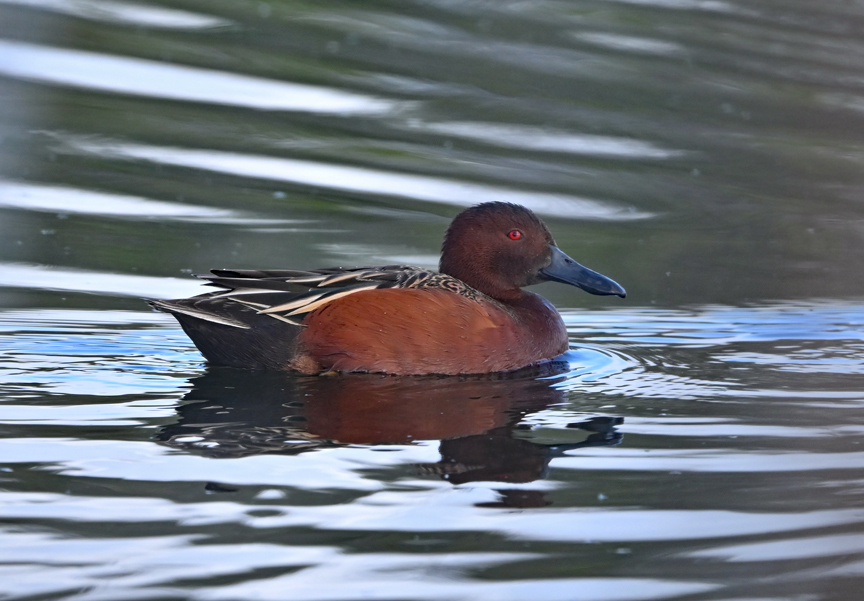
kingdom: Animalia
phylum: Chordata
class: Aves
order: Anseriformes
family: Anatidae
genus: Spatula
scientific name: Spatula cyanoptera
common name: Cinnamon teal
